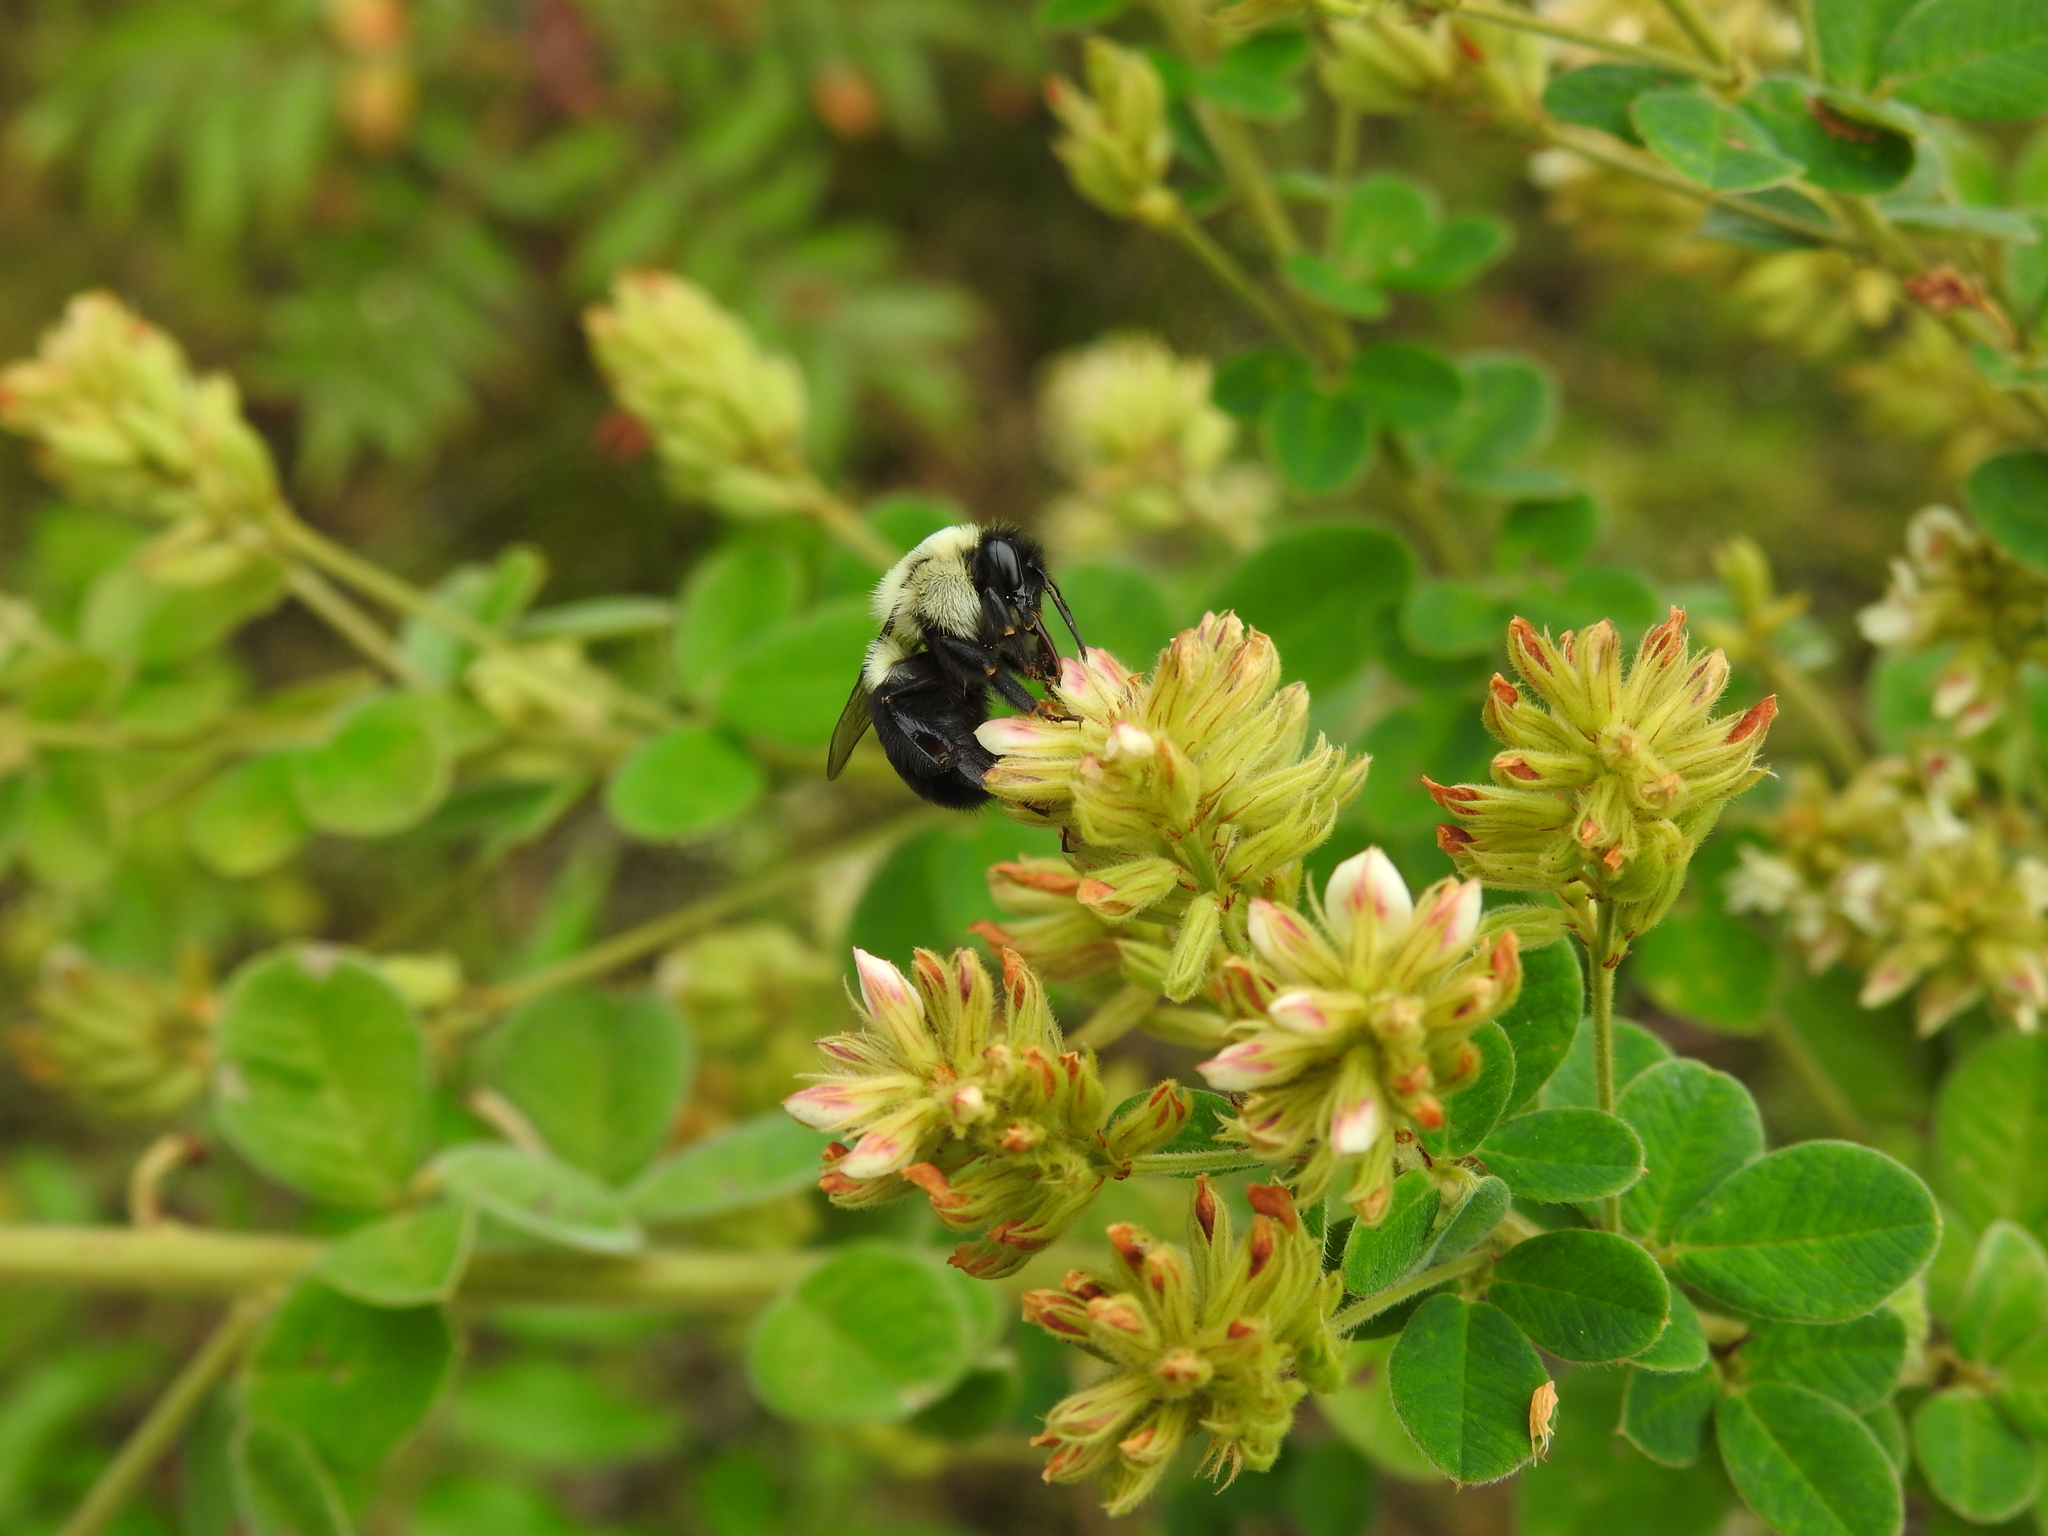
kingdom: Animalia
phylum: Arthropoda
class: Insecta
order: Hymenoptera
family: Apidae
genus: Bombus
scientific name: Bombus impatiens
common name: Common eastern bumble bee
